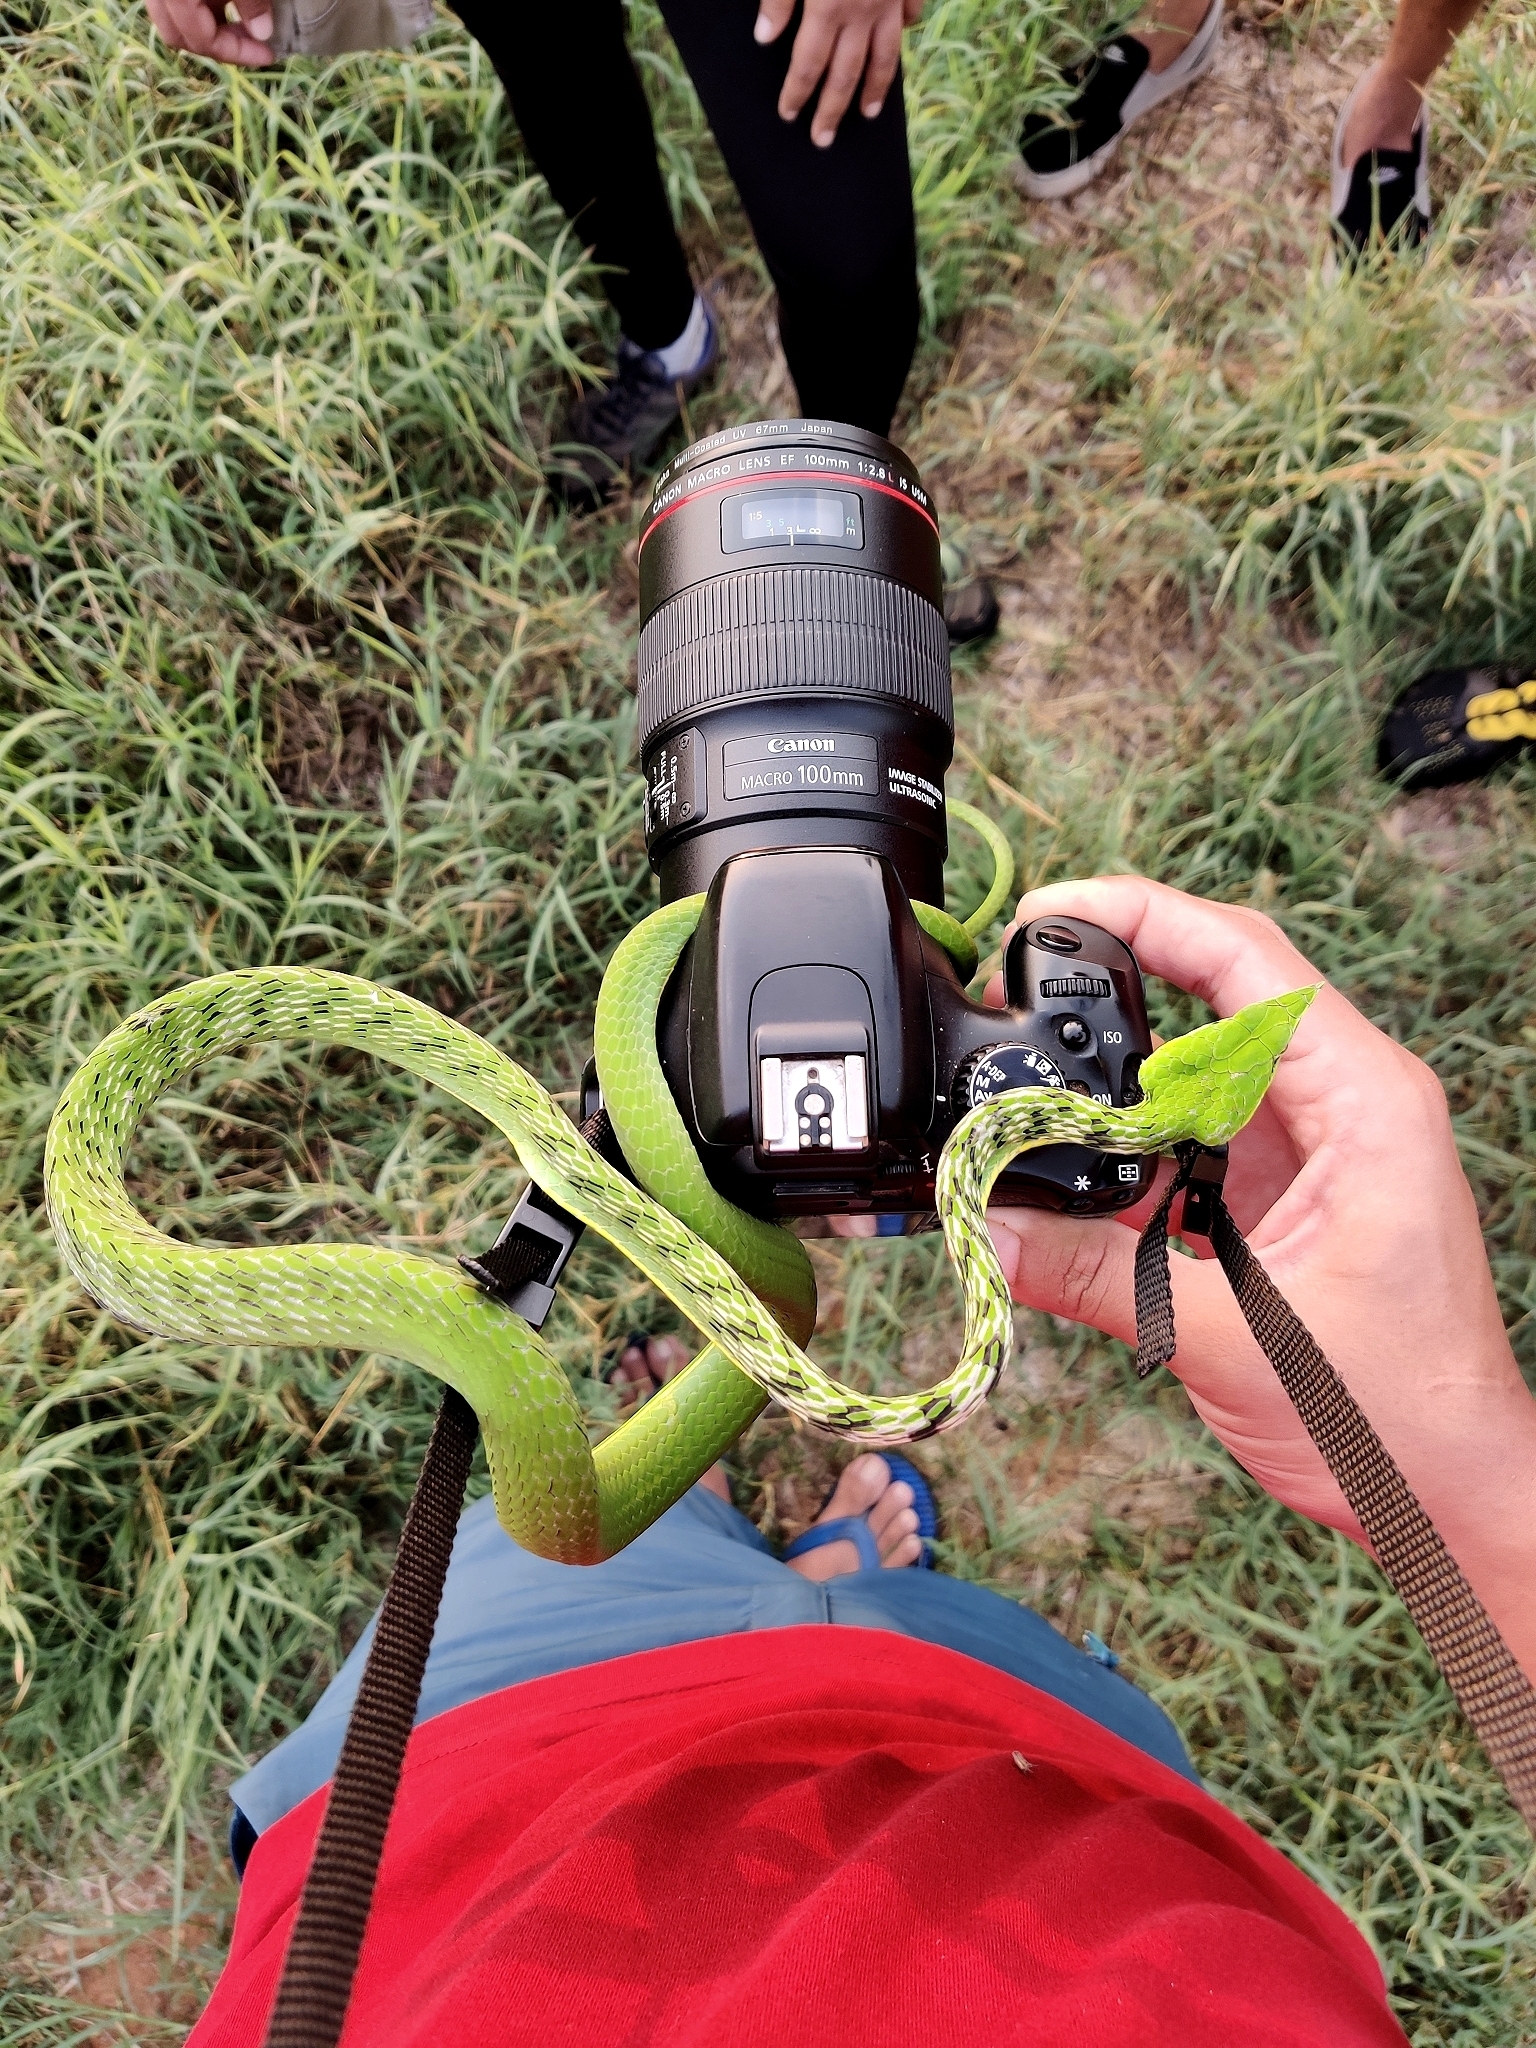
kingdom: Animalia
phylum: Chordata
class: Squamata
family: Colubridae
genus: Ahaetulla
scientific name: Ahaetulla oxyrhyncha
